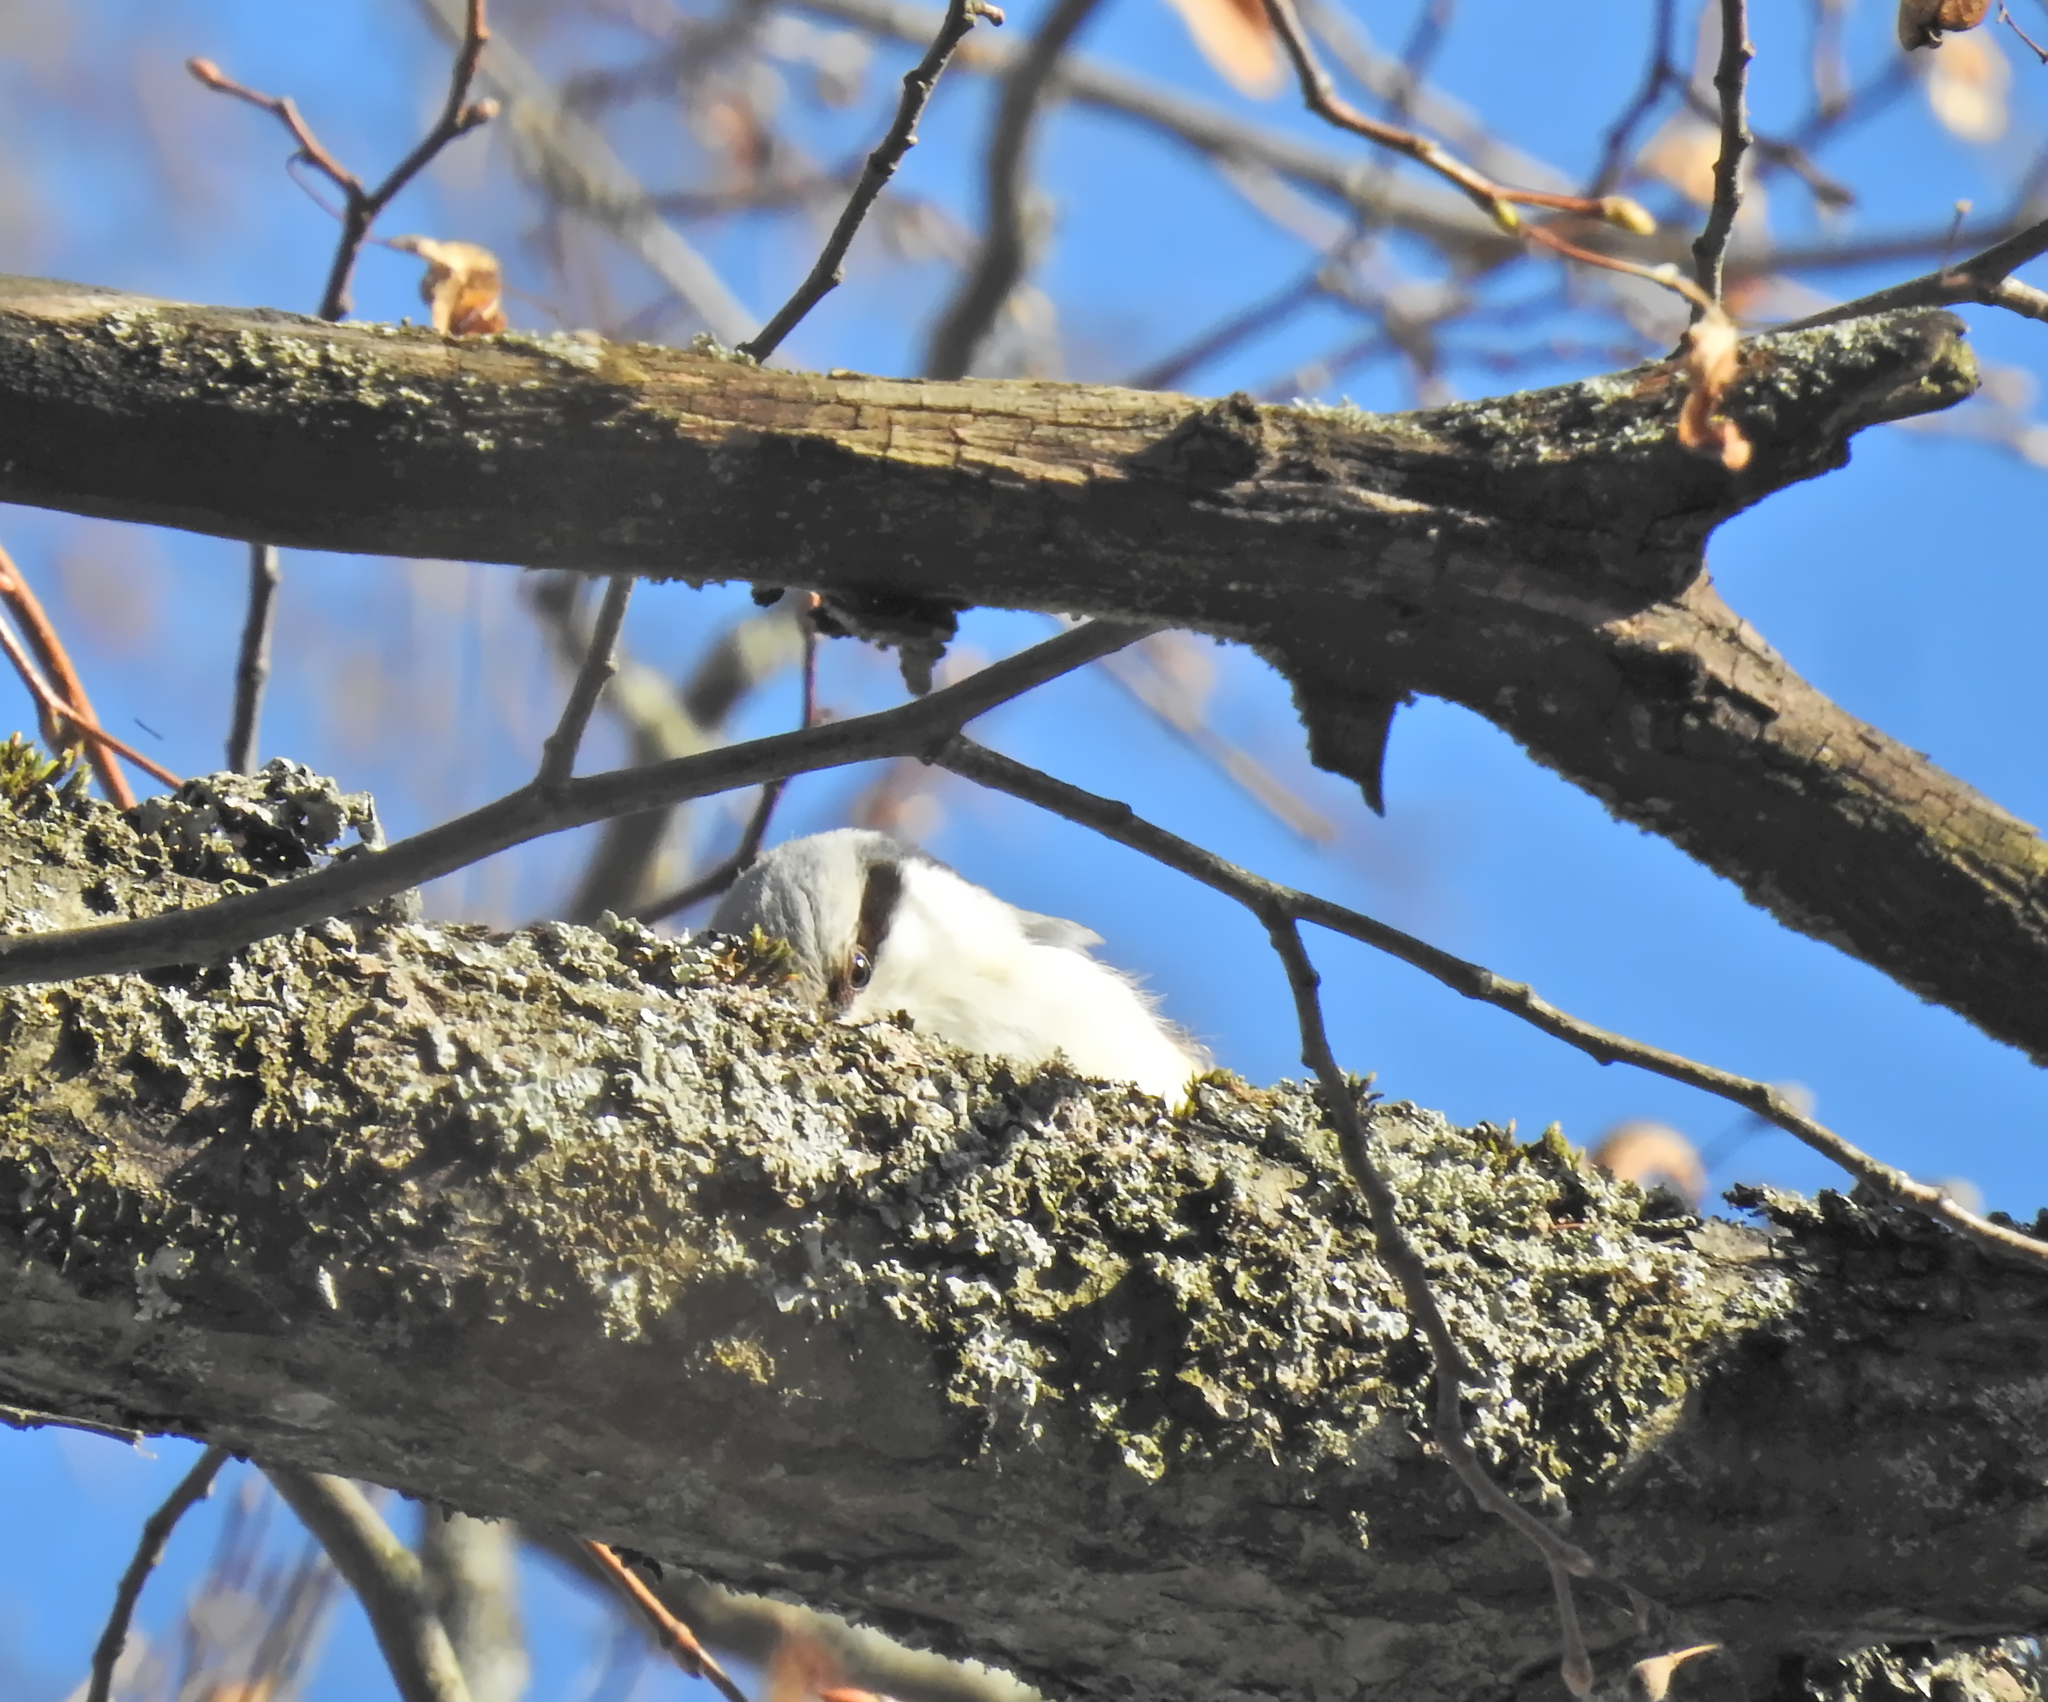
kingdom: Animalia
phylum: Chordata
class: Aves
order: Passeriformes
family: Sittidae
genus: Sitta
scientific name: Sitta europaea
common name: Eurasian nuthatch
